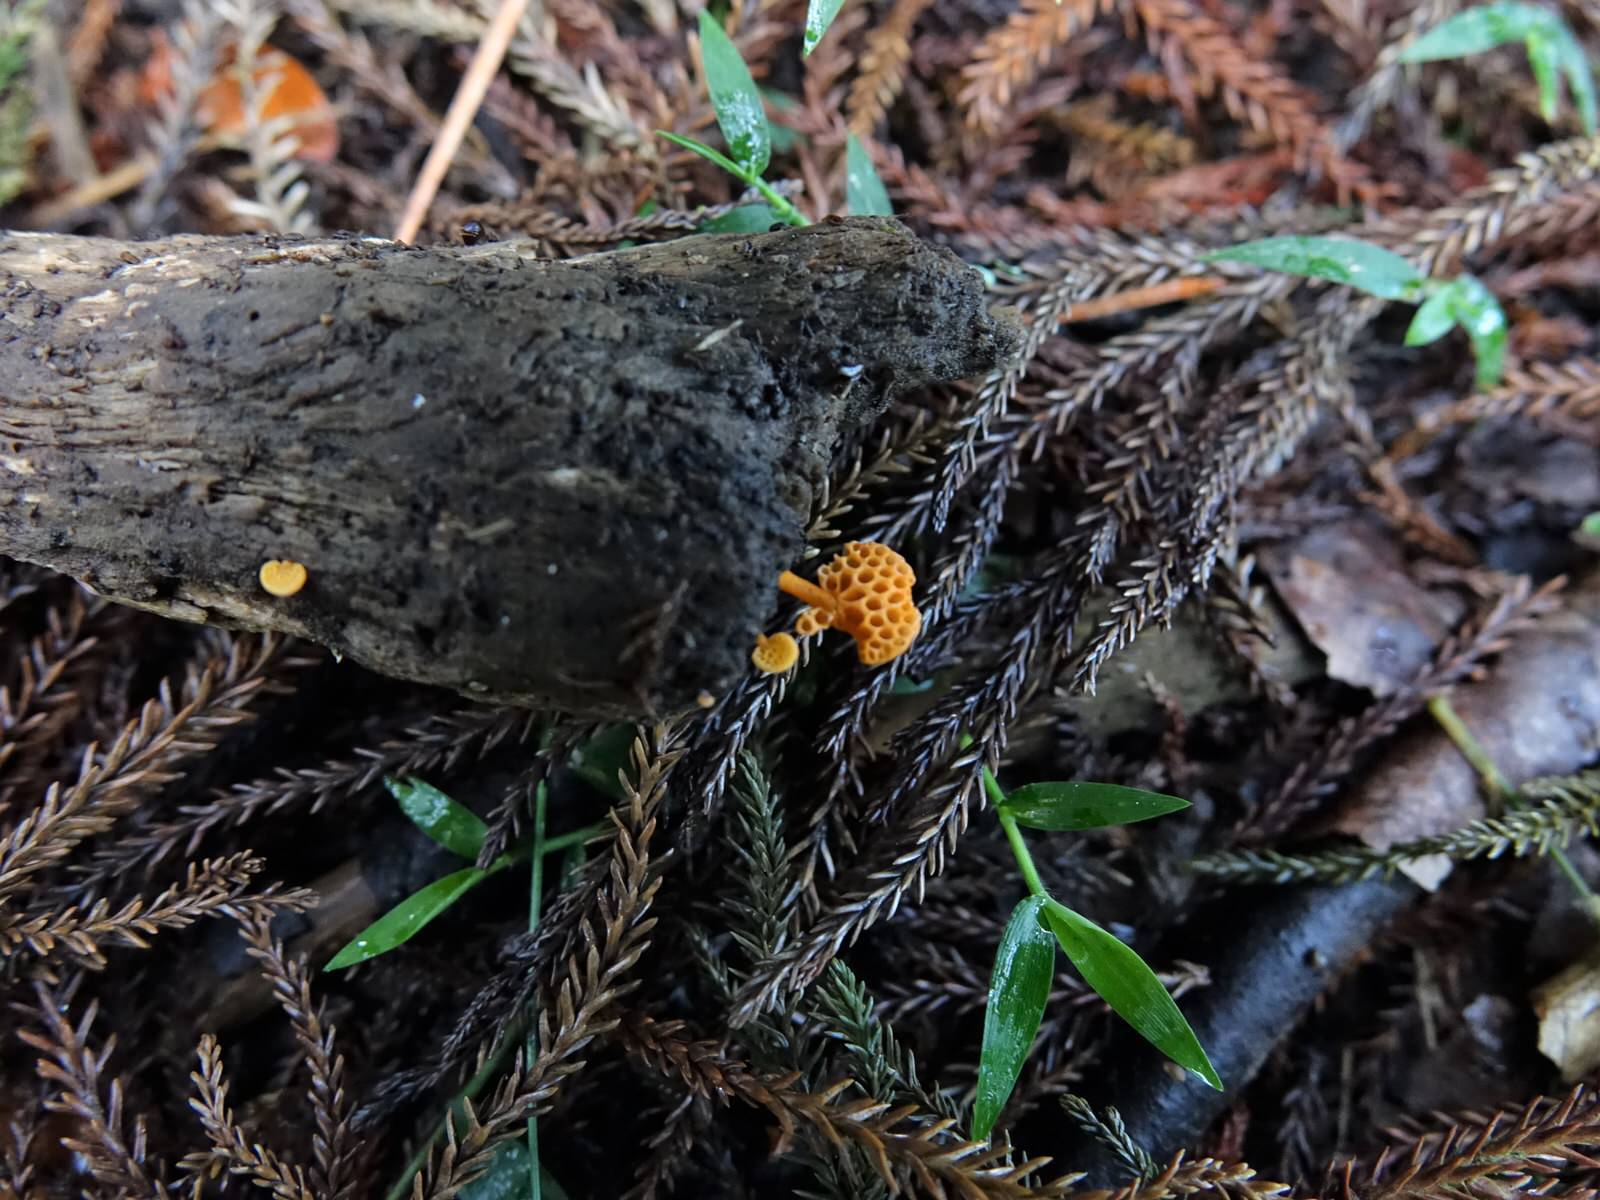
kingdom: Fungi
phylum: Basidiomycota
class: Agaricomycetes
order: Agaricales
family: Mycenaceae
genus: Favolaschia
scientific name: Favolaschia claudopus
